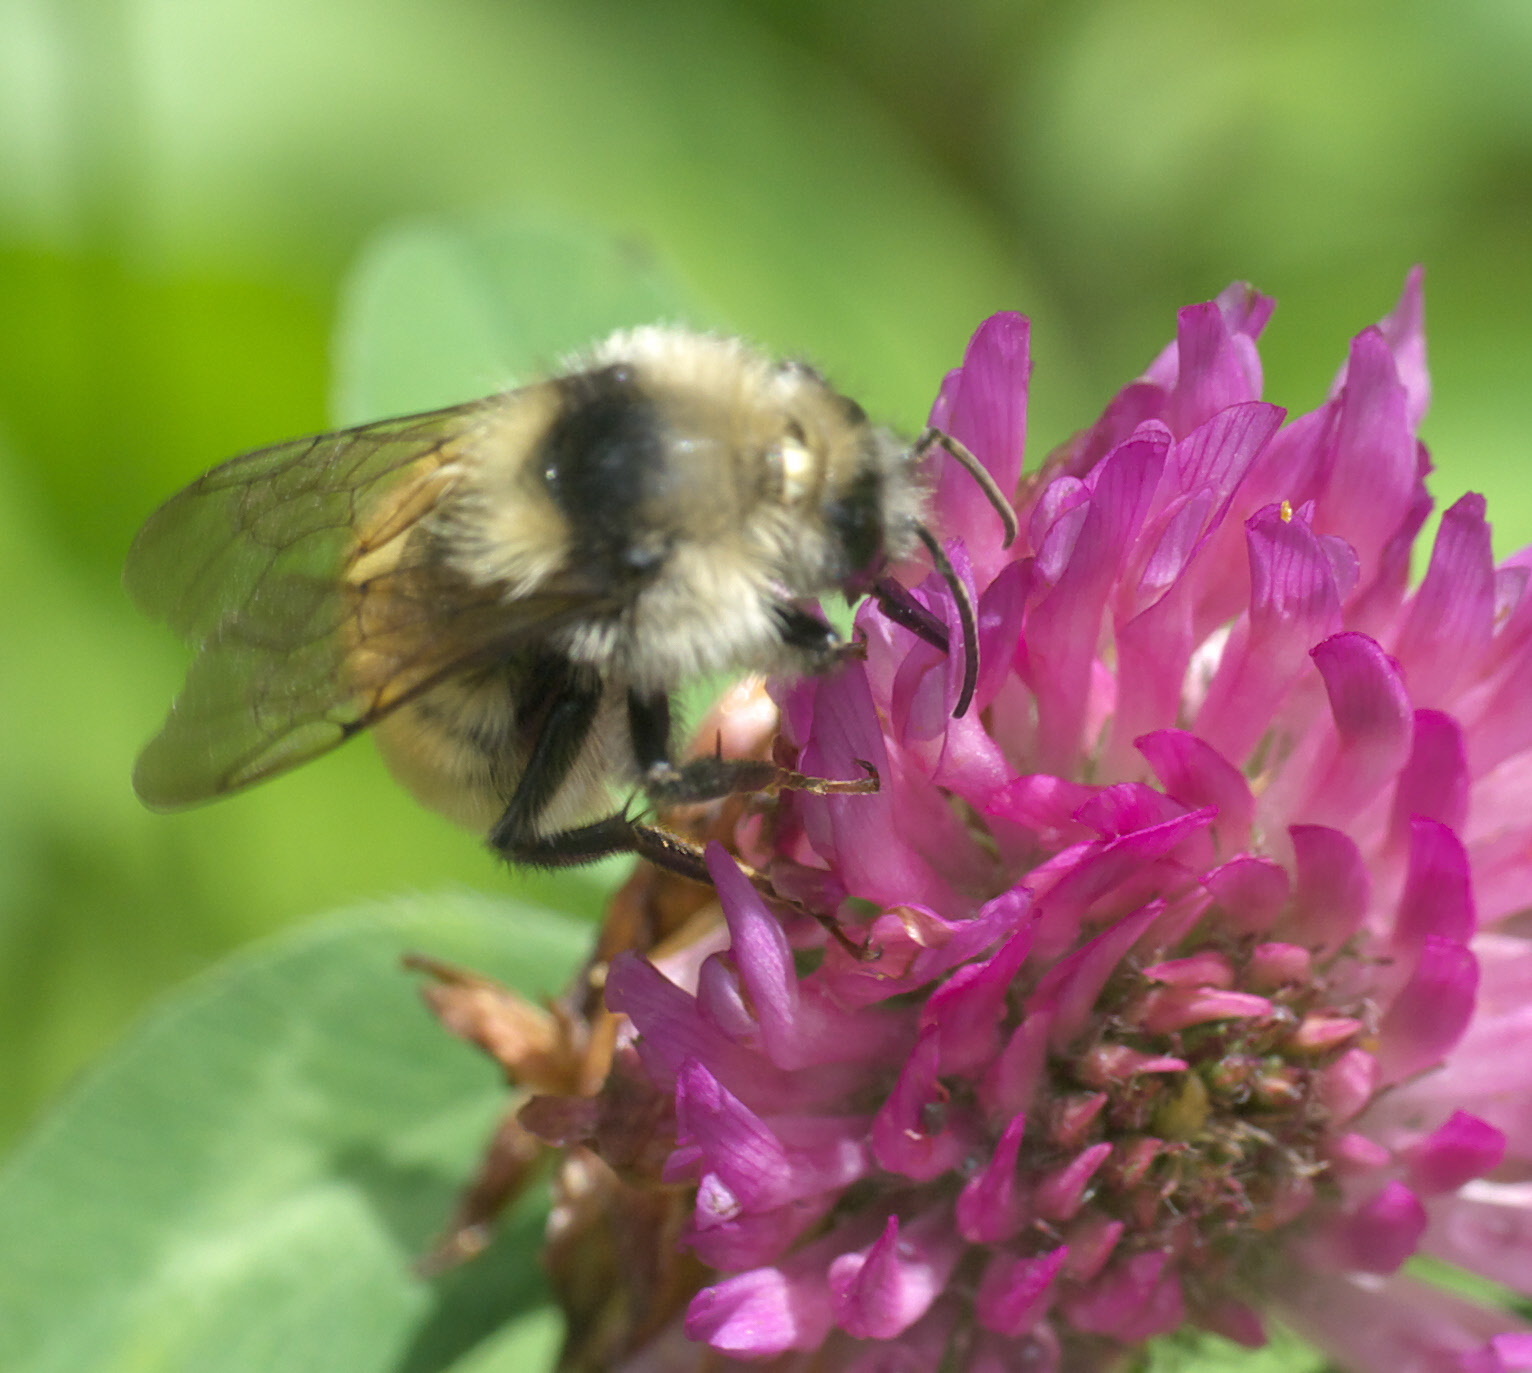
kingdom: Animalia
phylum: Arthropoda
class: Insecta
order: Hymenoptera
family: Apidae
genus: Bombus
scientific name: Bombus appositus
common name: White-shouldered bumble bee
